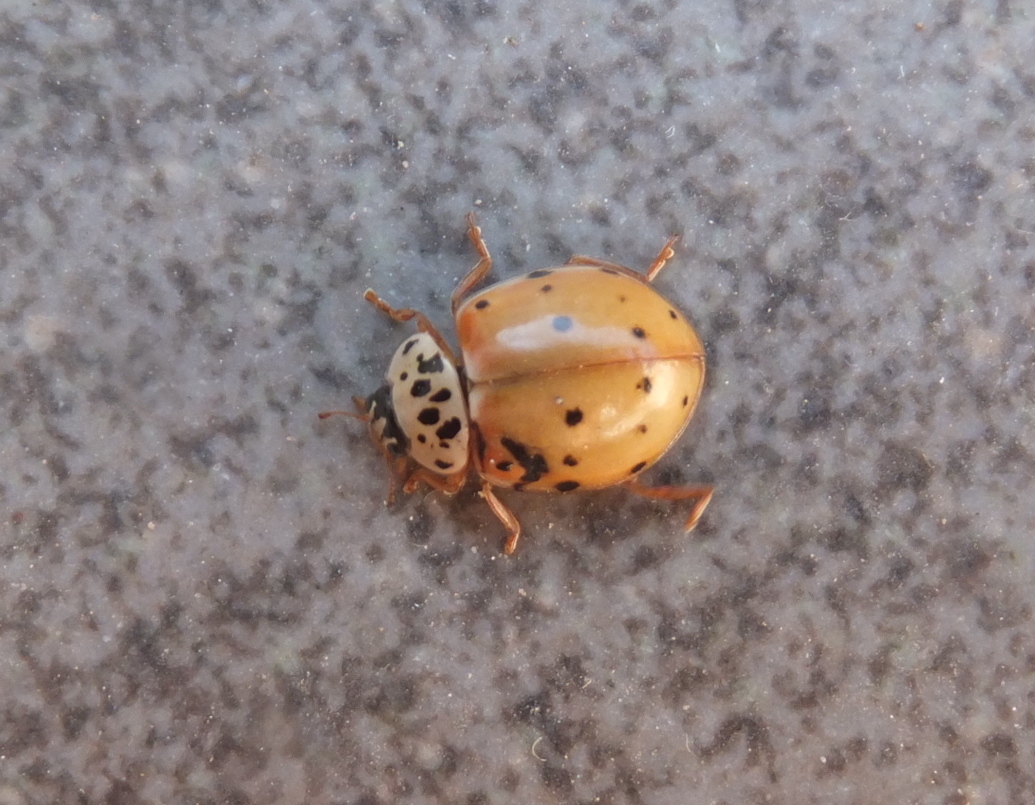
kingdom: Animalia
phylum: Arthropoda
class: Insecta
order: Coleoptera
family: Coccinellidae
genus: Harmonia
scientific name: Harmonia quadripunctata
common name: Cream-streaked ladybird
